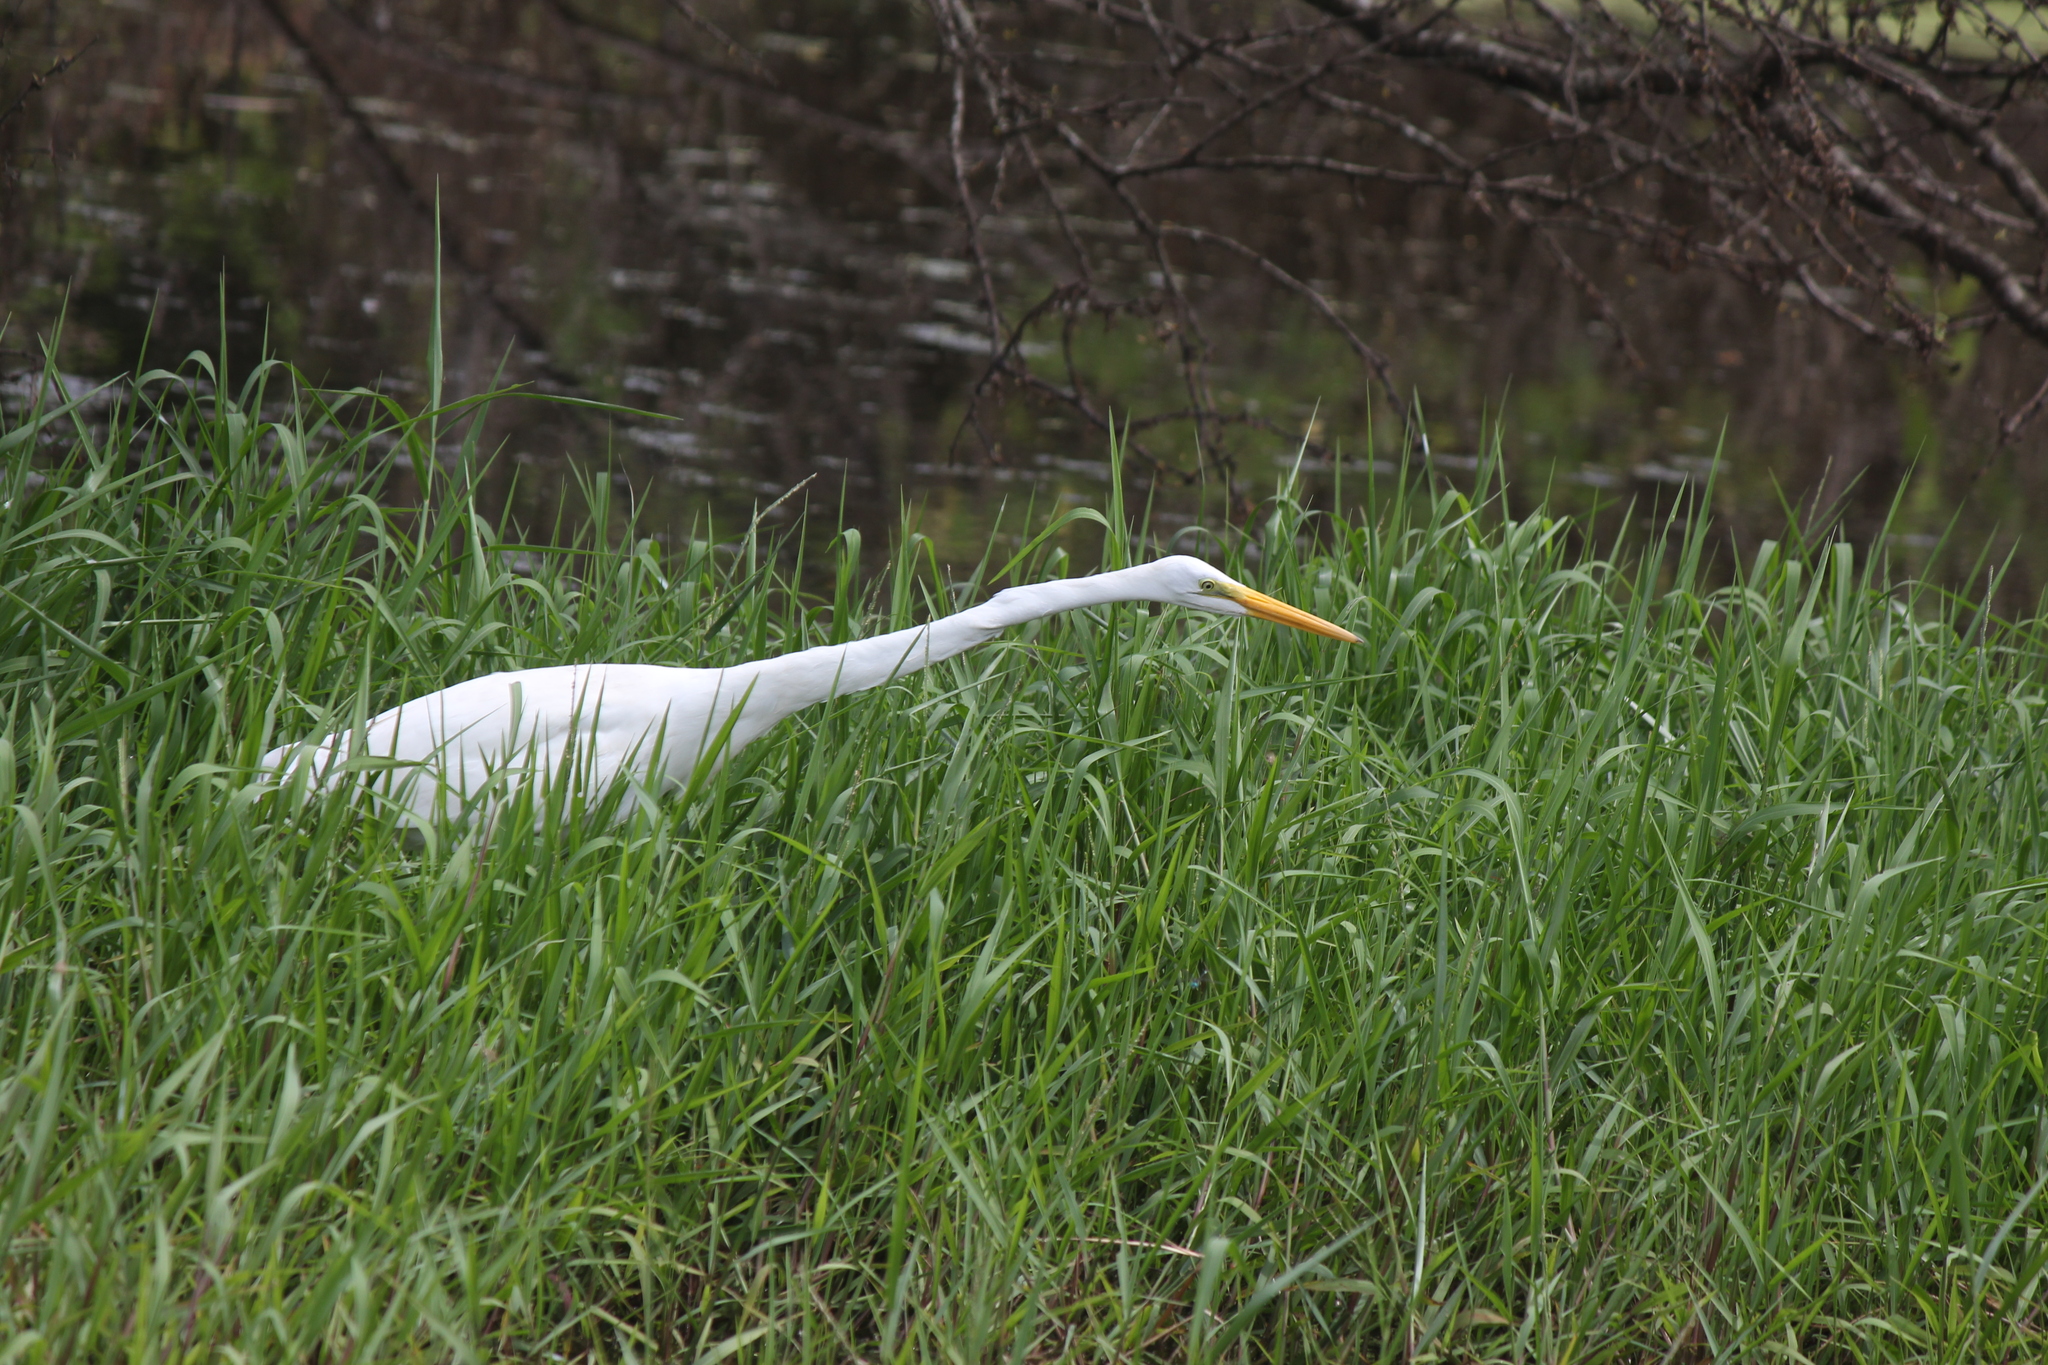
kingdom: Animalia
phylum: Chordata
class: Aves
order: Pelecaniformes
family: Ardeidae
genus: Ardea
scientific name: Ardea alba
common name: Great egret
